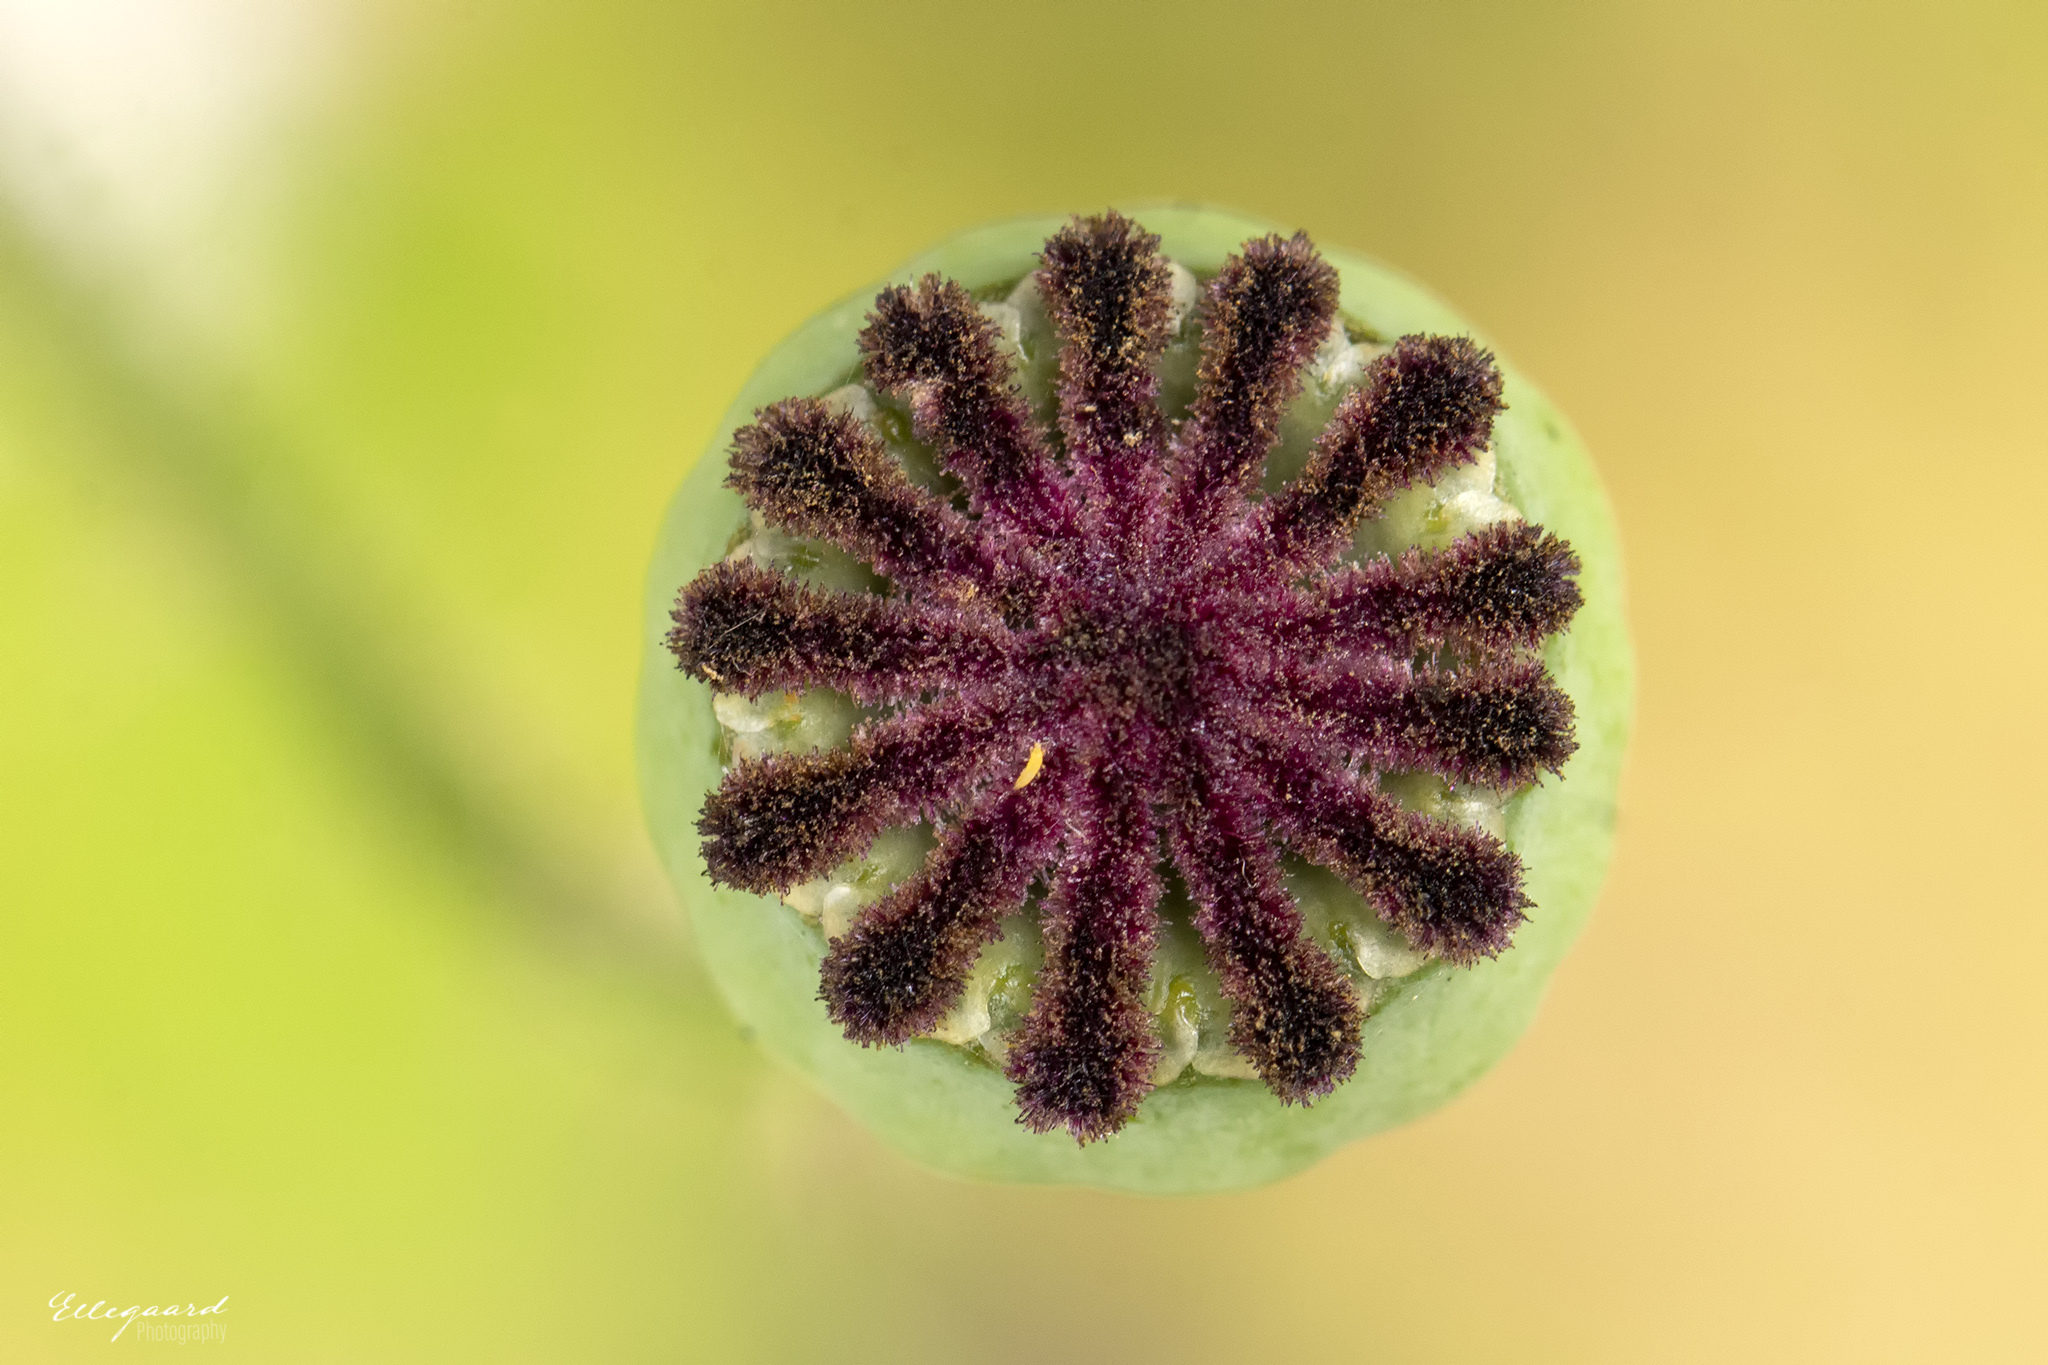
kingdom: Plantae
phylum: Tracheophyta
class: Magnoliopsida
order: Ranunculales
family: Papaveraceae
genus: Papaver
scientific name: Papaver somniferum
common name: Opium poppy
